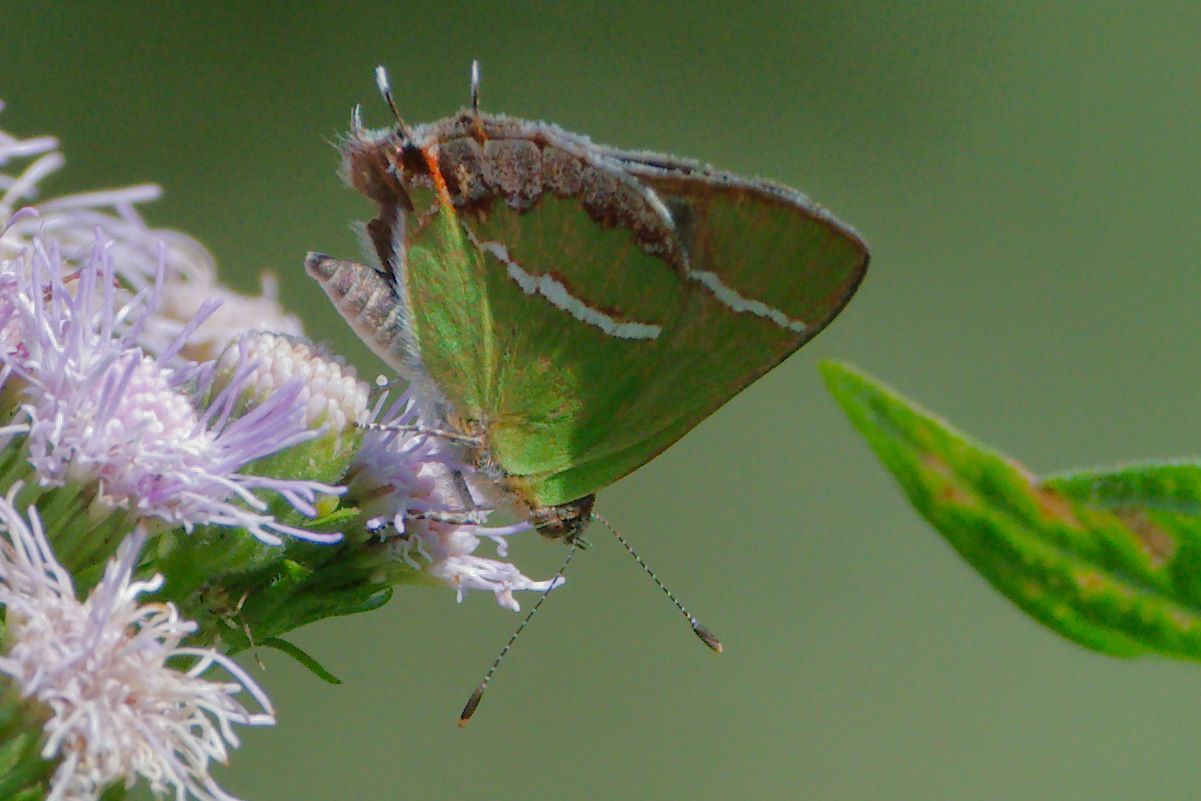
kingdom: Animalia
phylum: Arthropoda
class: Insecta
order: Lepidoptera
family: Lycaenidae
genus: Chlorostrymon
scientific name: Chlorostrymon simaethis
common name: Silver-banded hairstreak
